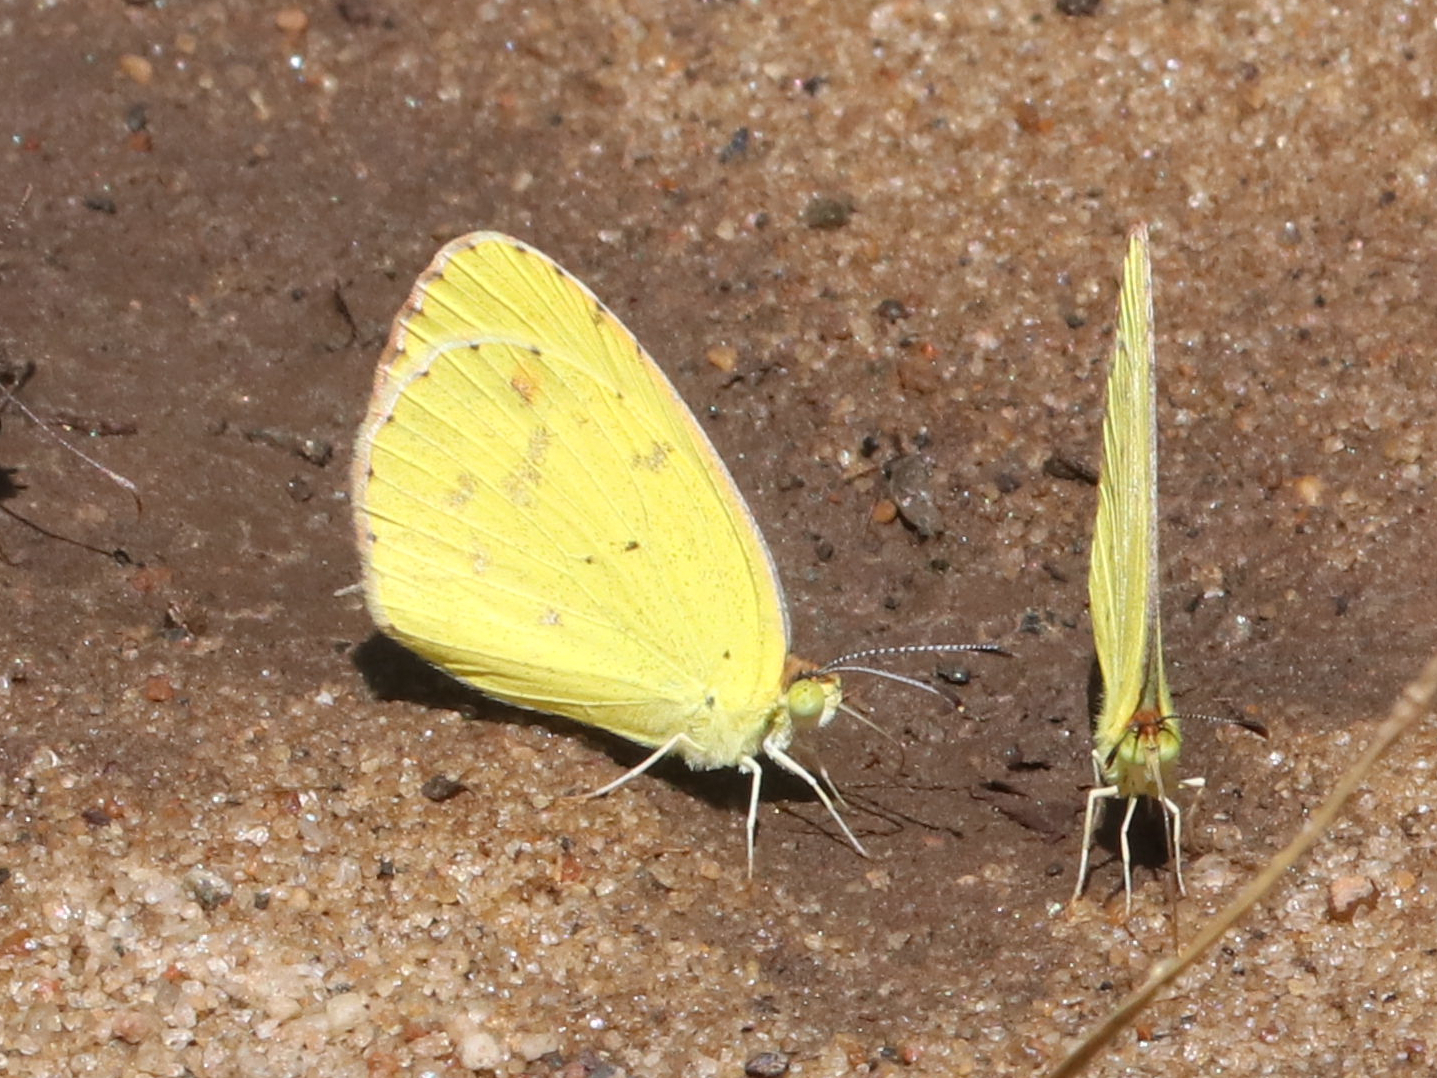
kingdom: Animalia
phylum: Arthropoda
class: Insecta
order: Lepidoptera
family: Pieridae
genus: Pyrisitia
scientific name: Pyrisitia lisa
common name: Little yellow
